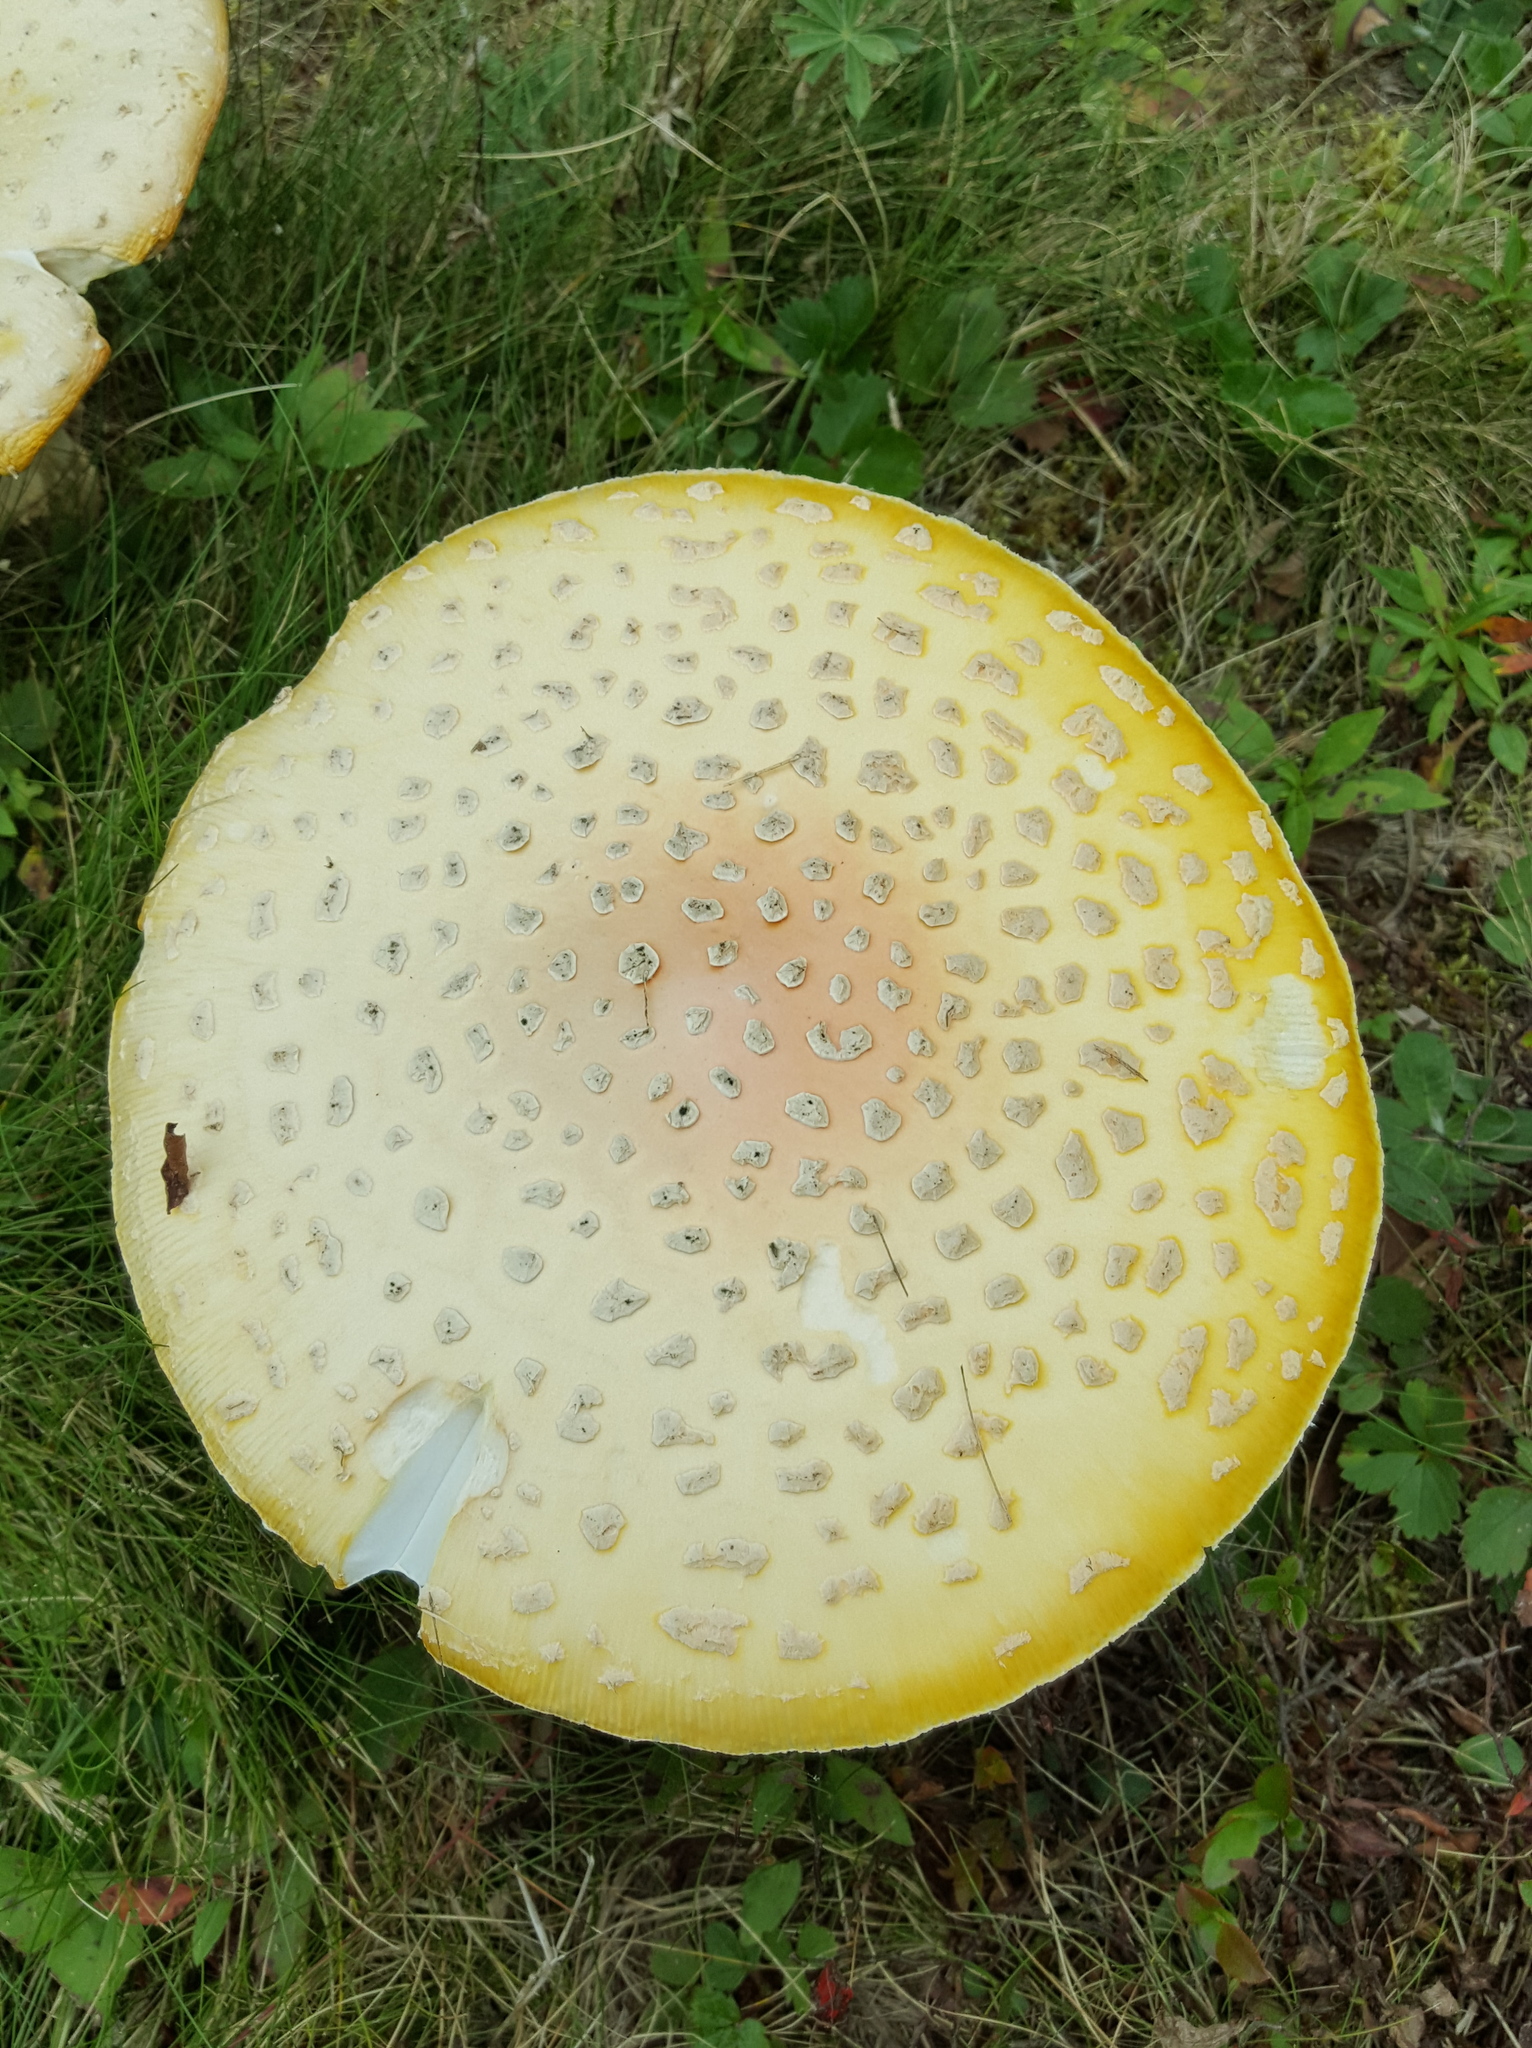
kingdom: Fungi
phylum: Basidiomycota
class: Agaricomycetes
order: Agaricales
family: Amanitaceae
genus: Amanita
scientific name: Amanita muscaria
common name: Fly agaric
